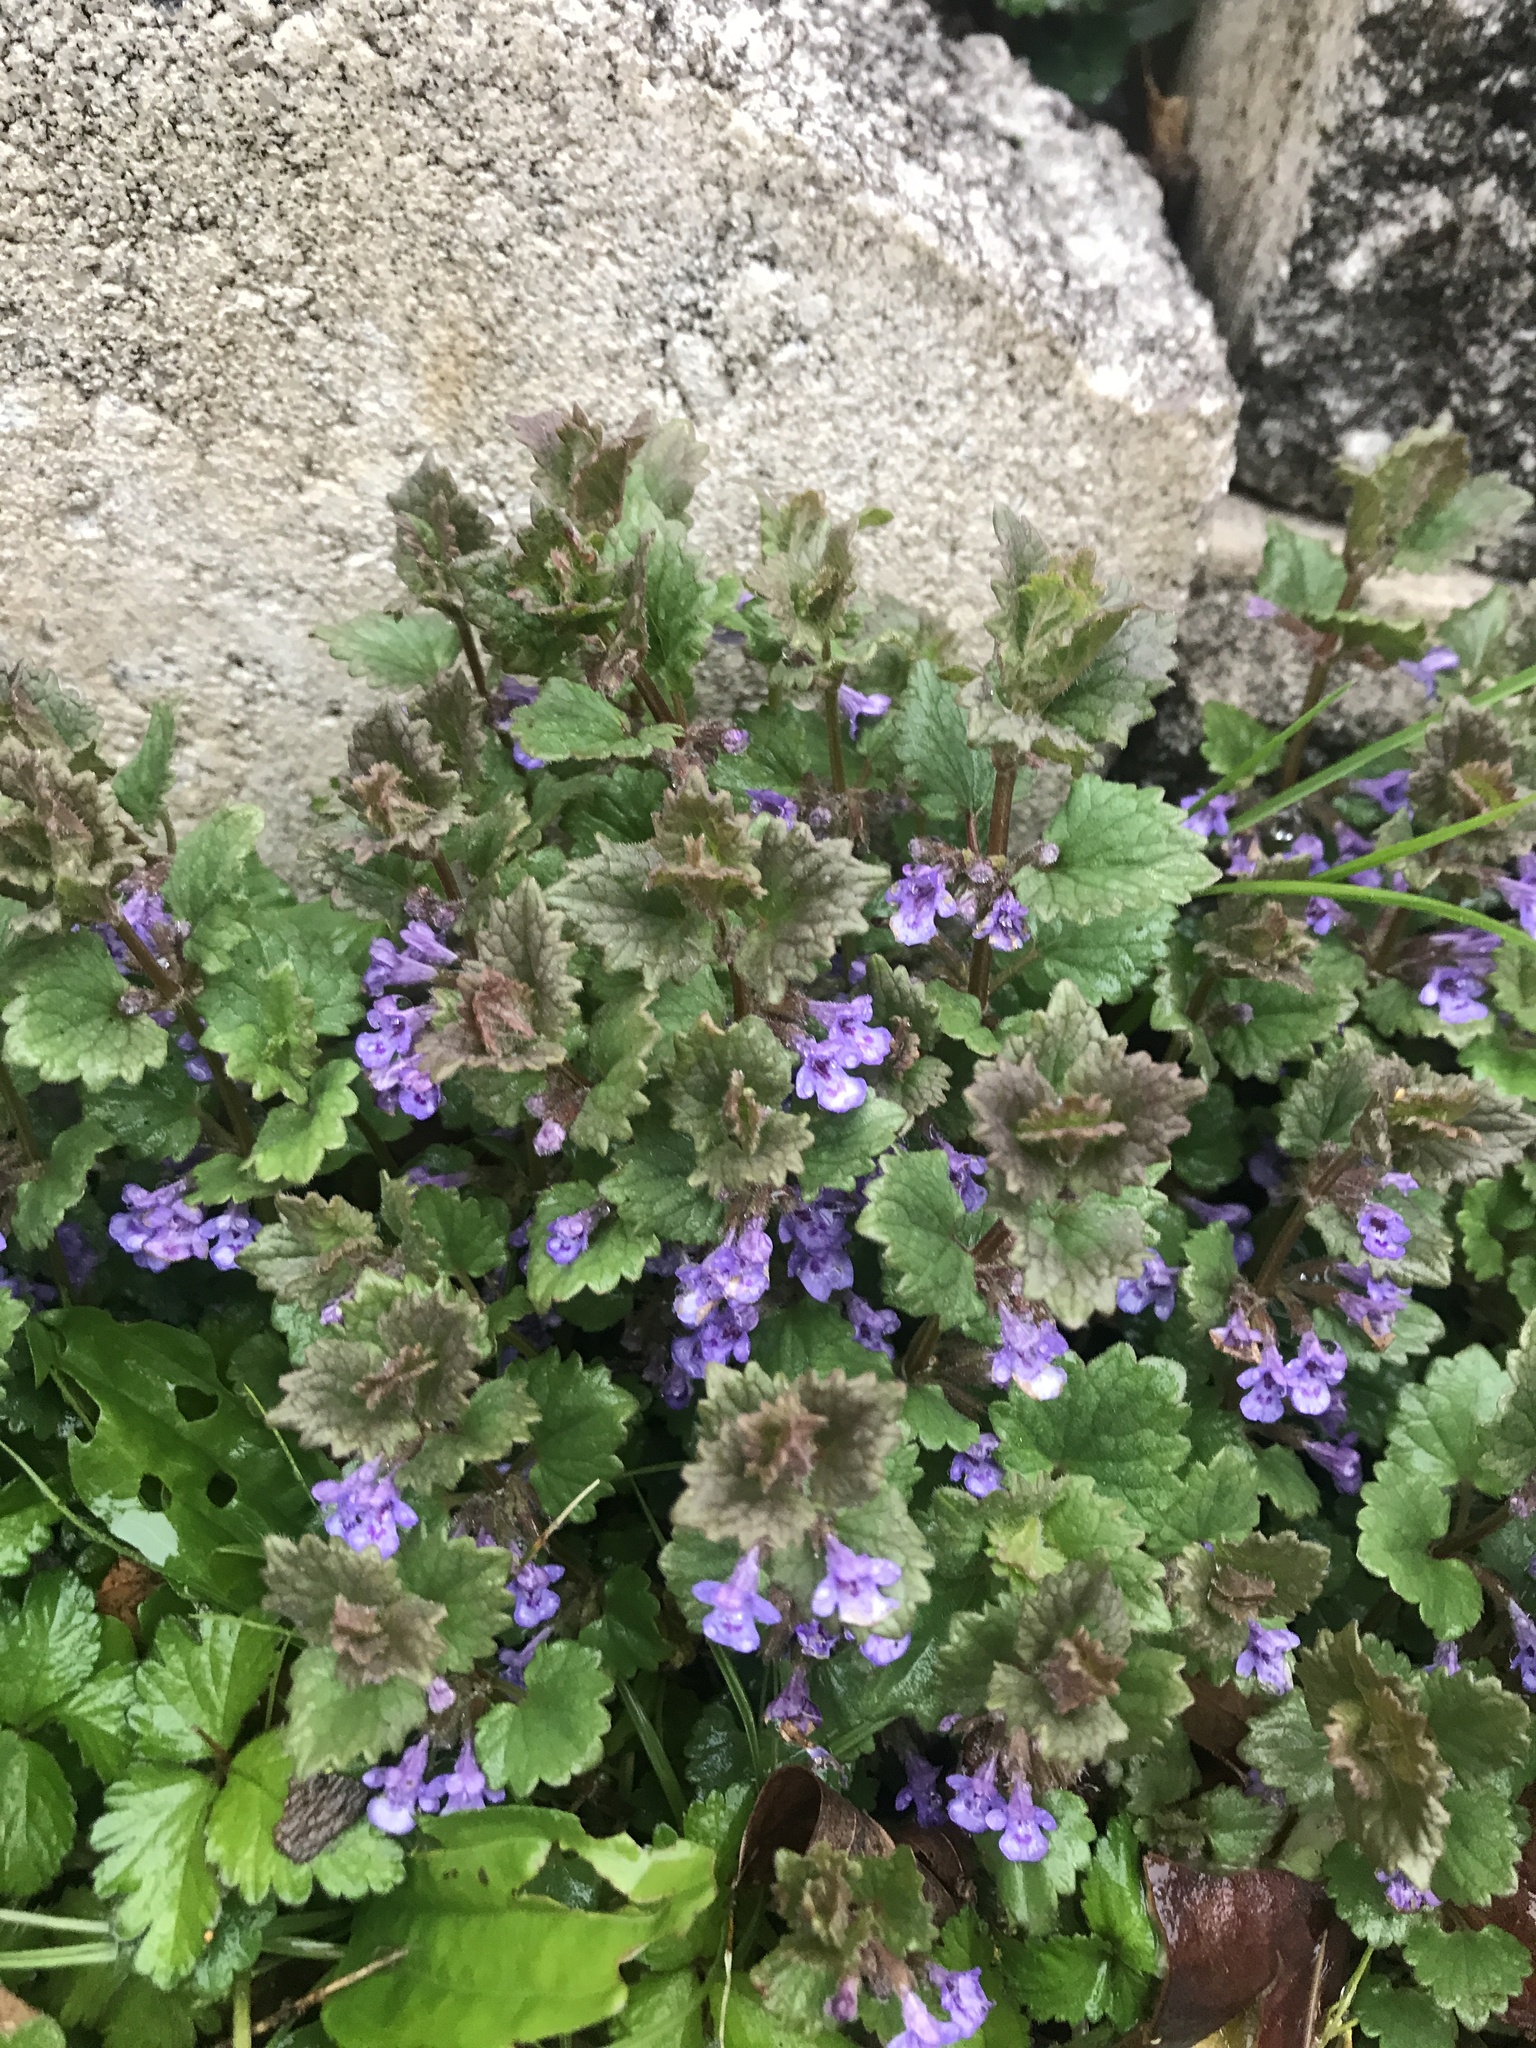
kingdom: Plantae
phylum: Tracheophyta
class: Magnoliopsida
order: Lamiales
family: Lamiaceae
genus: Glechoma
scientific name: Glechoma hederacea
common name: Ground ivy
